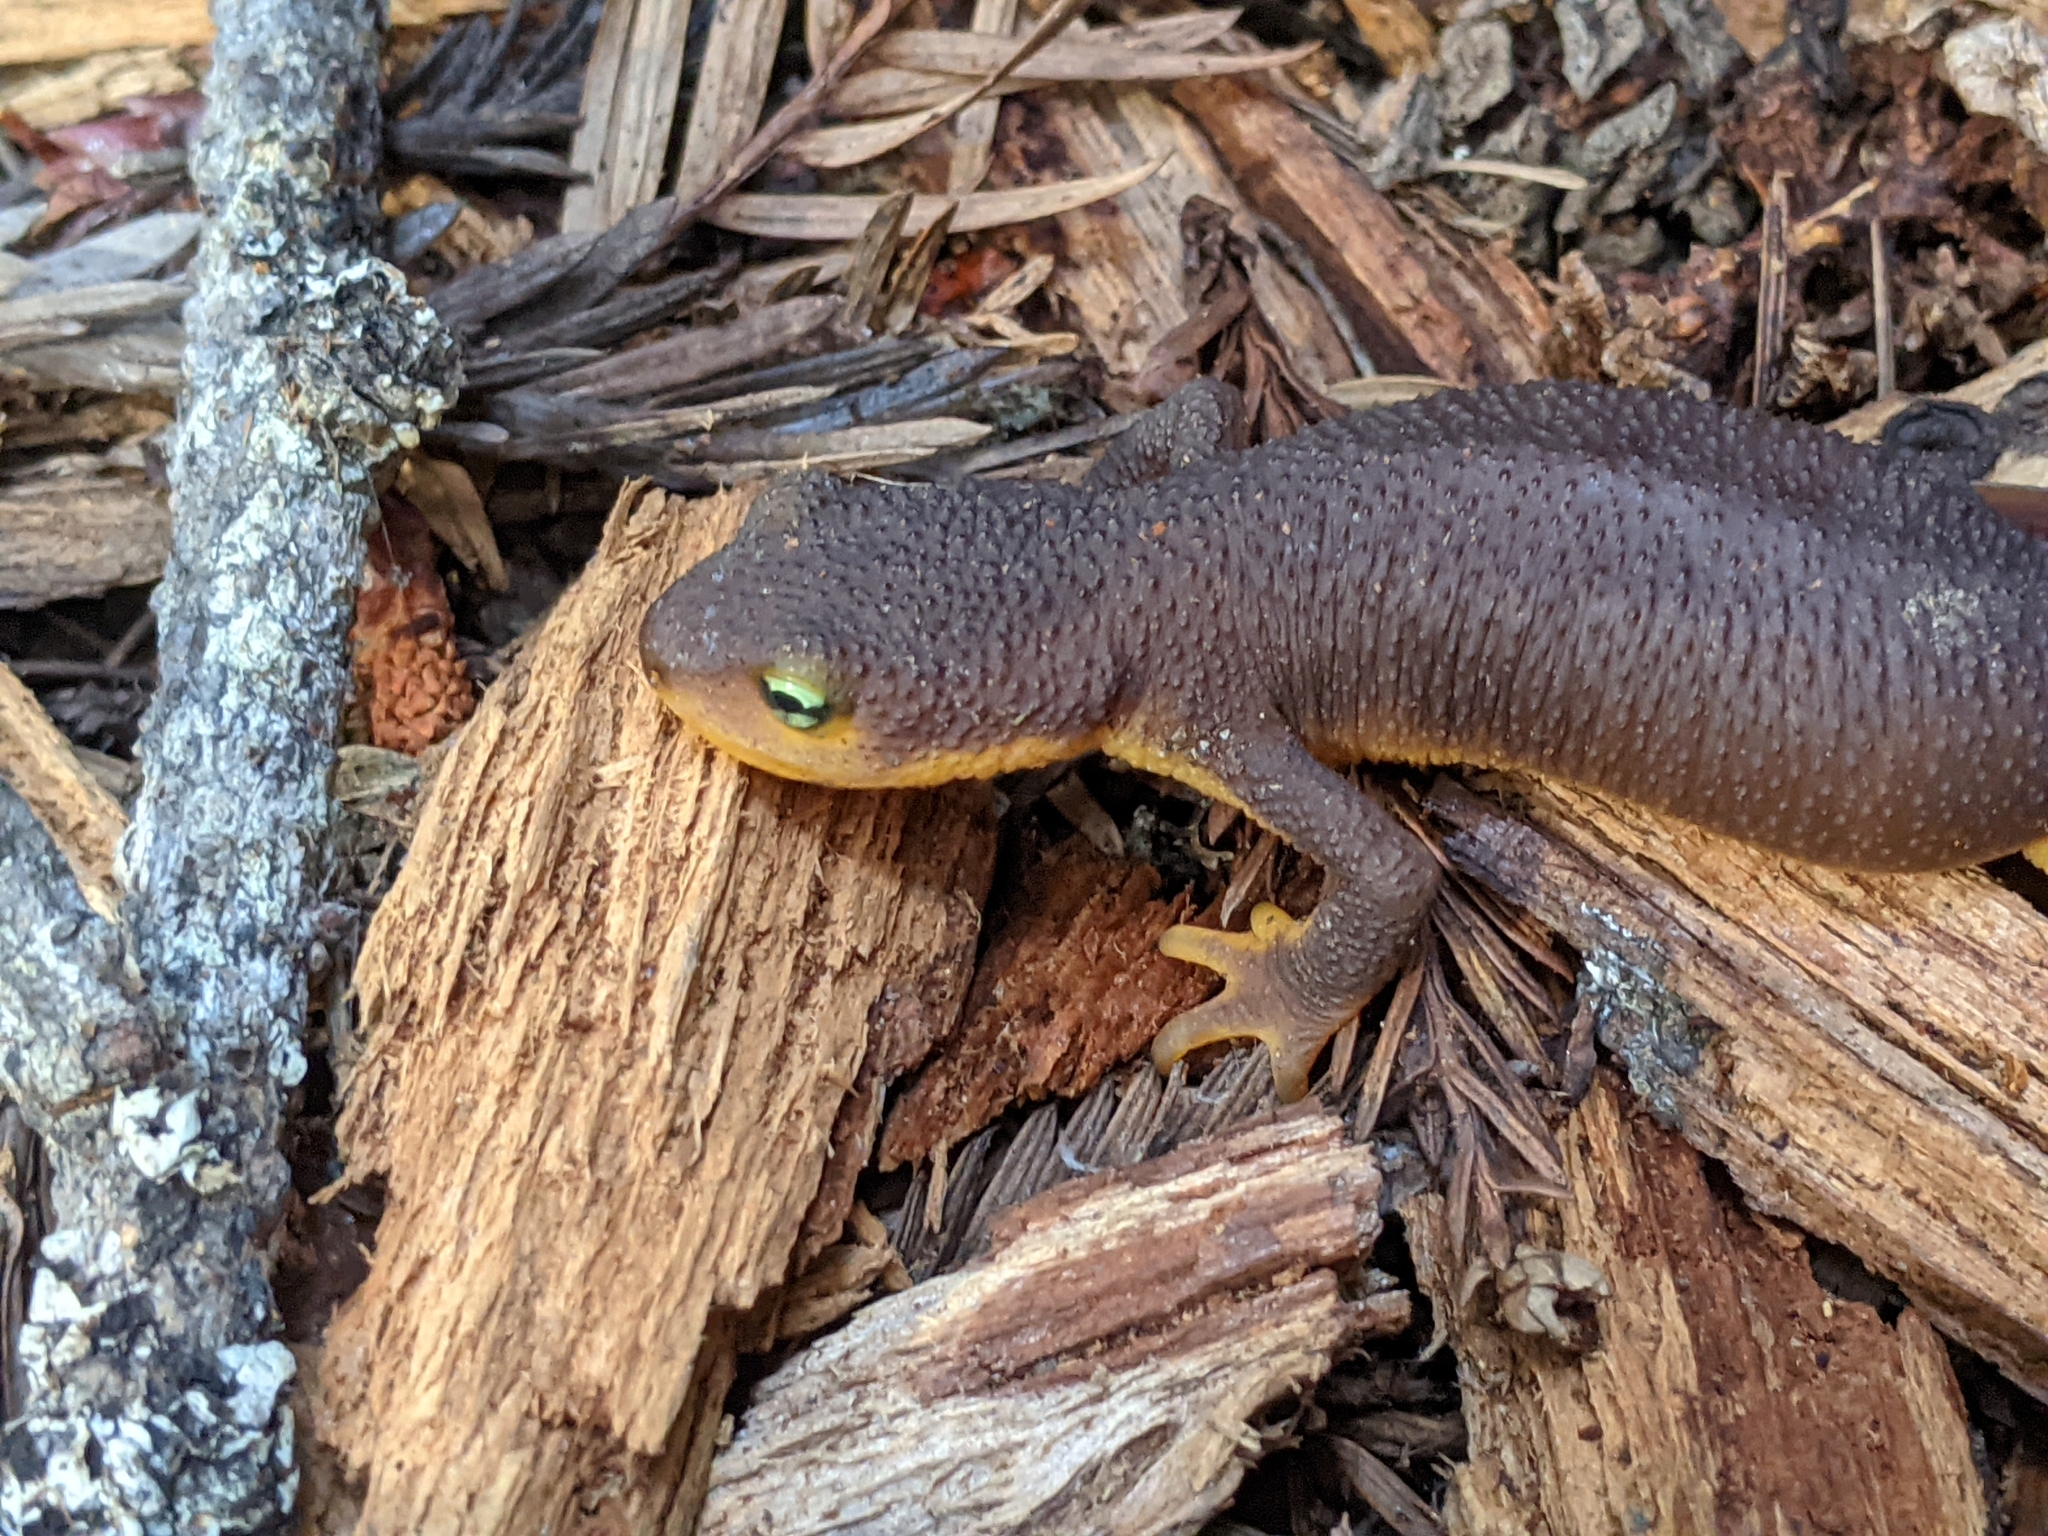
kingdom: Animalia
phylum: Chordata
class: Amphibia
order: Caudata
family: Salamandridae
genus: Taricha
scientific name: Taricha torosa
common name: California newt
